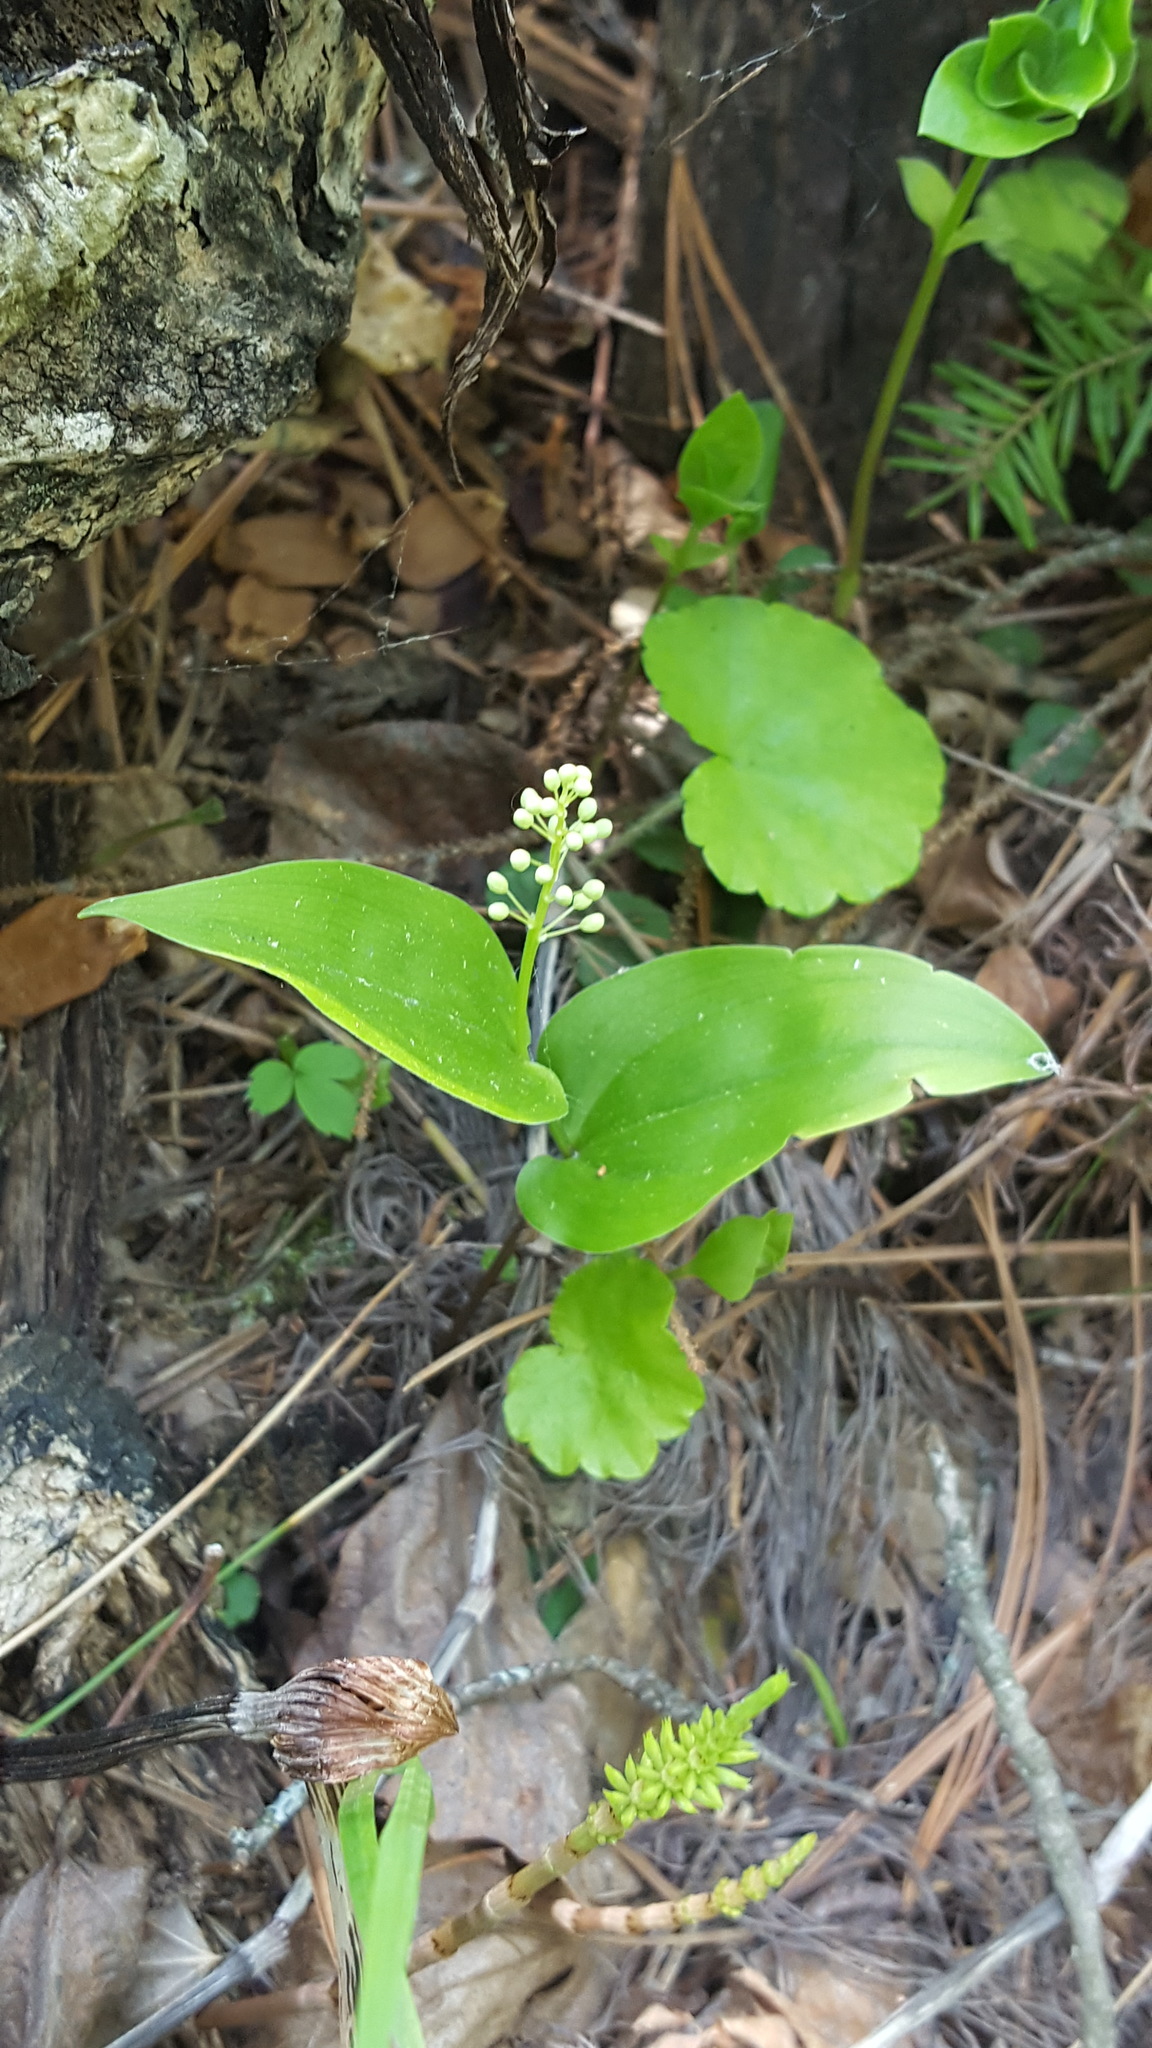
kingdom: Plantae
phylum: Tracheophyta
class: Liliopsida
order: Asparagales
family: Asparagaceae
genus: Maianthemum
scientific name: Maianthemum canadense
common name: False lily-of-the-valley
